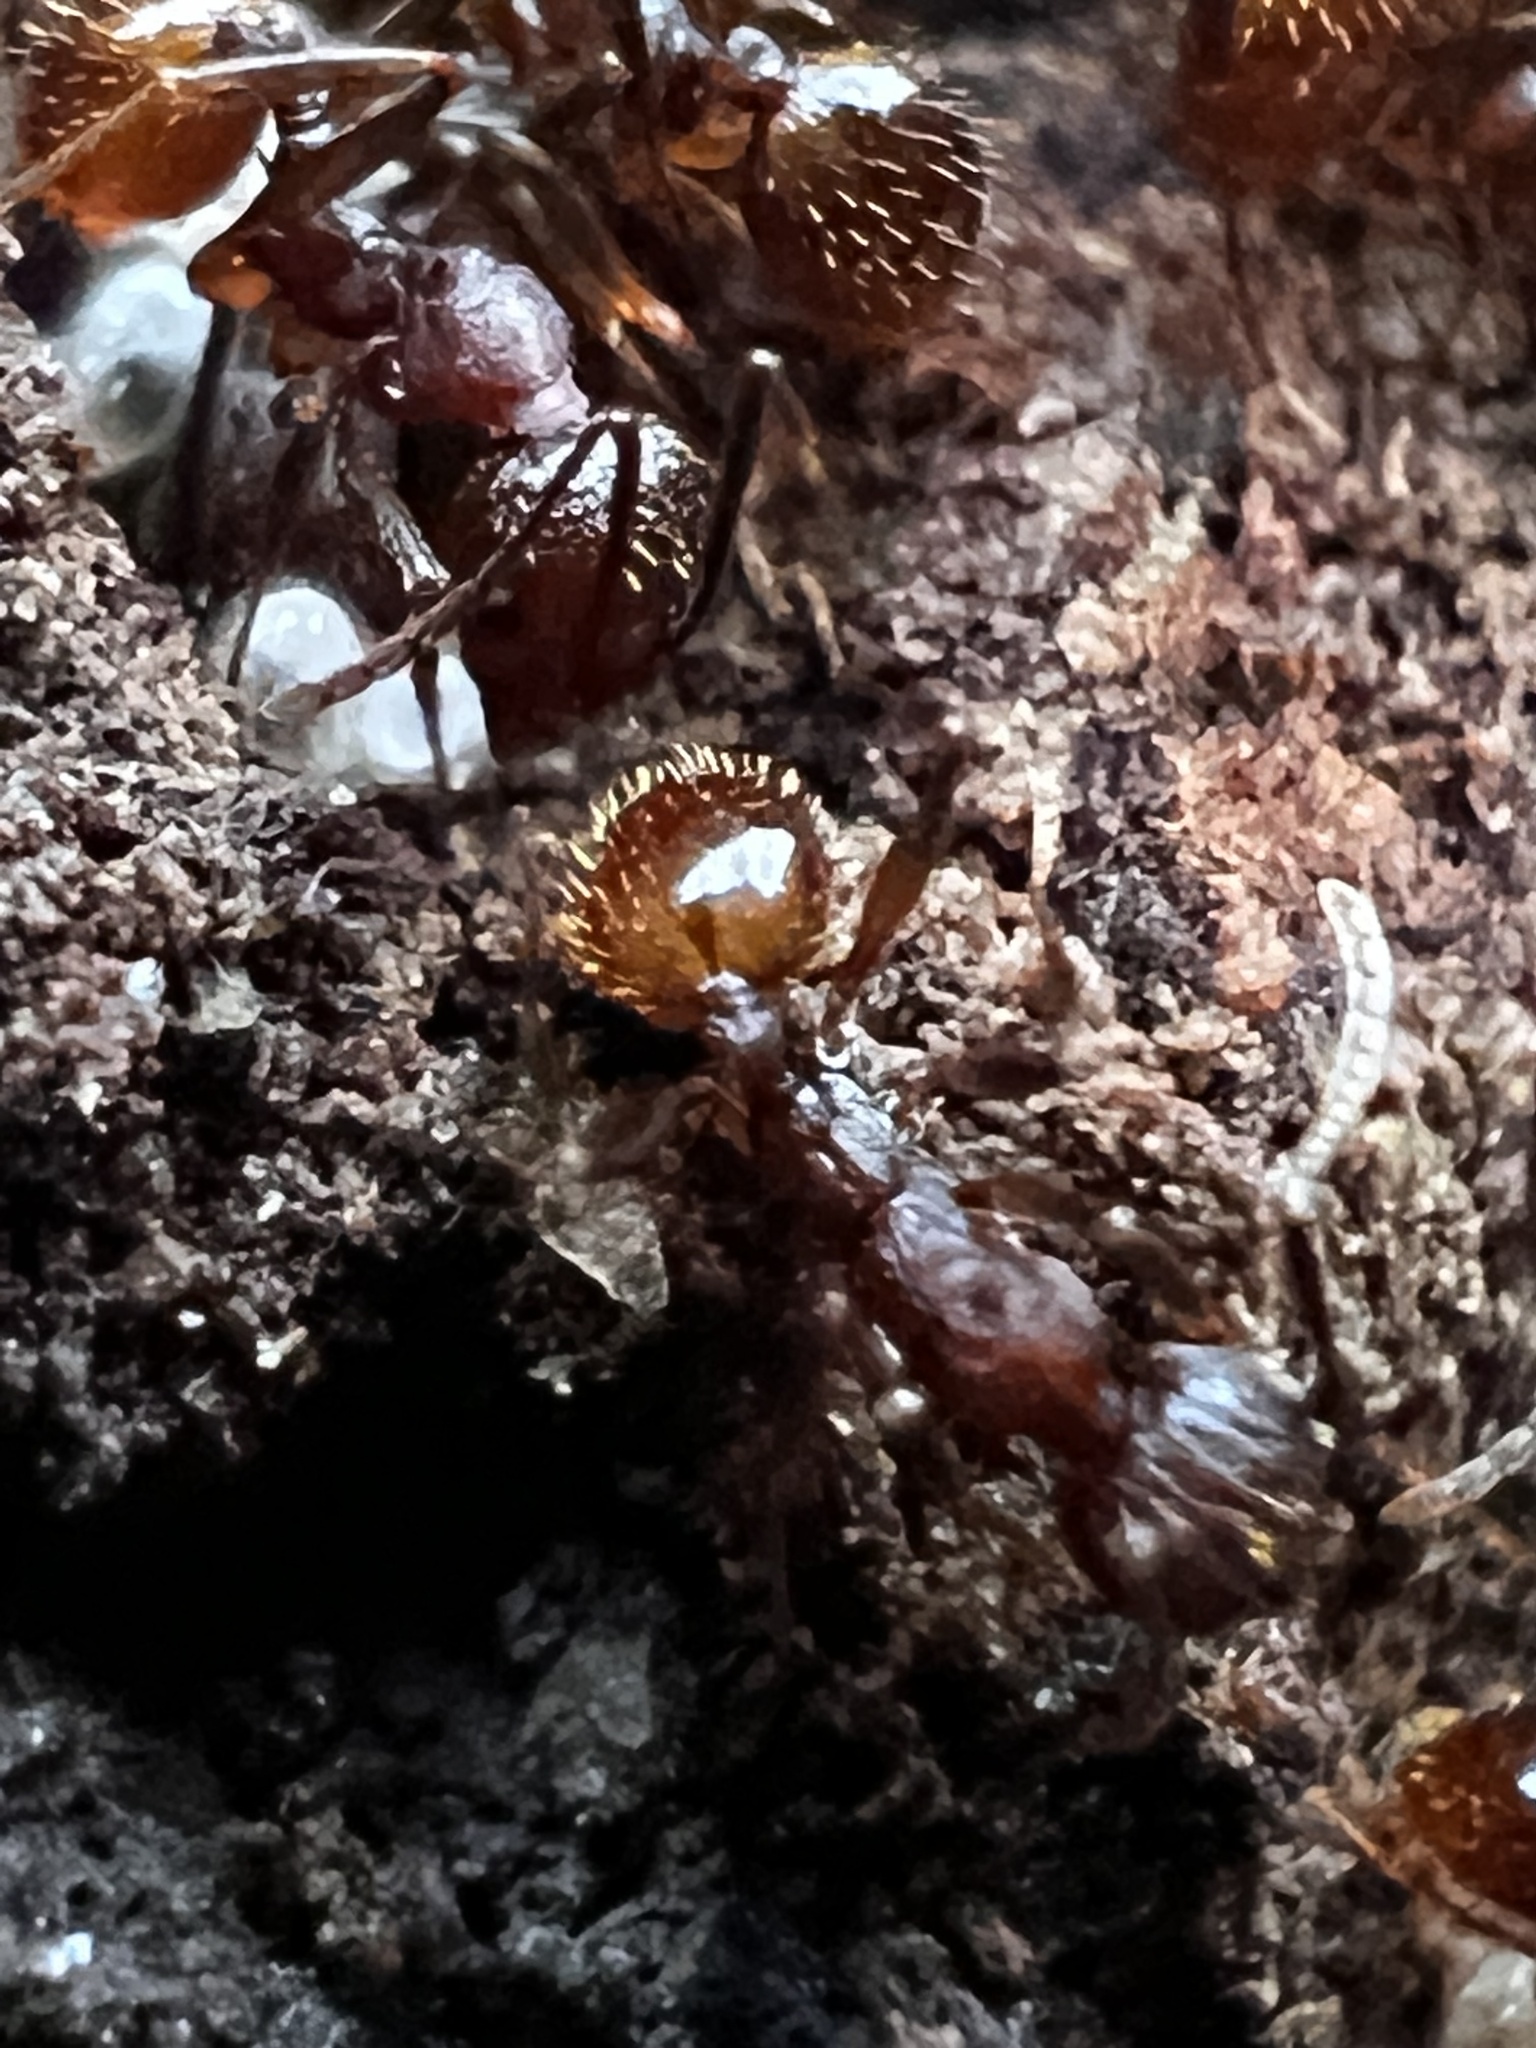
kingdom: Animalia
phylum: Arthropoda
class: Insecta
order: Hymenoptera
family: Formicidae
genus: Aphaenogaster
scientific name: Aphaenogaster fulva
